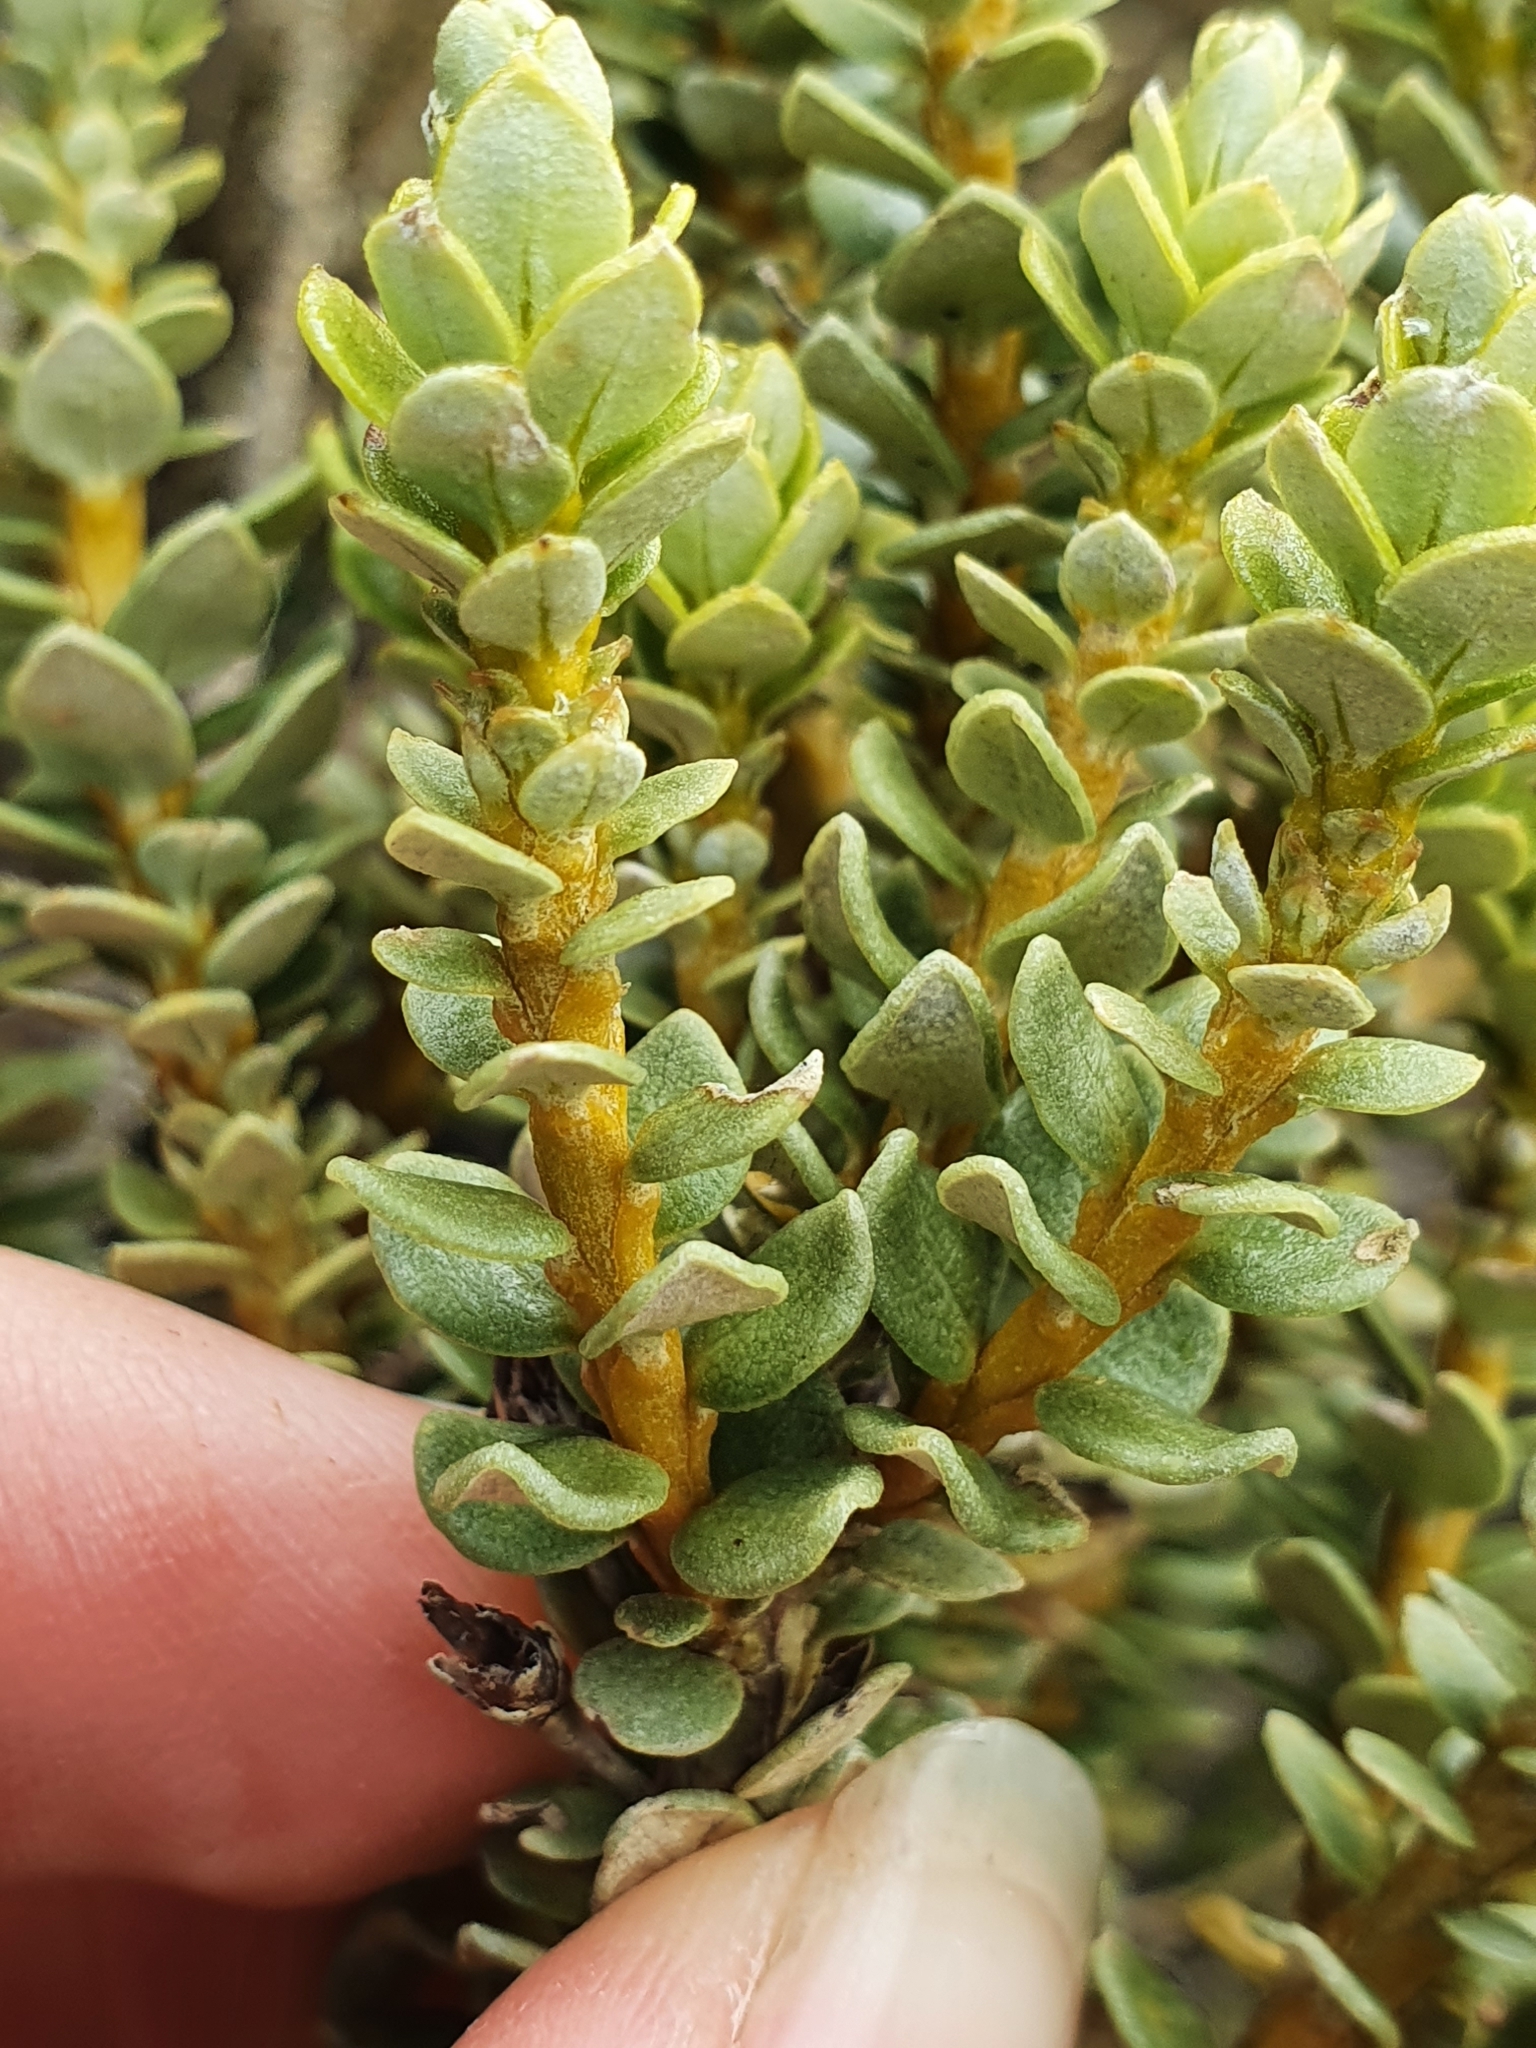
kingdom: Plantae
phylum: Tracheophyta
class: Magnoliopsida
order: Asterales
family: Asteraceae
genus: Olearia
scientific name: Olearia nummularifolia
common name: Sticky daisybush
